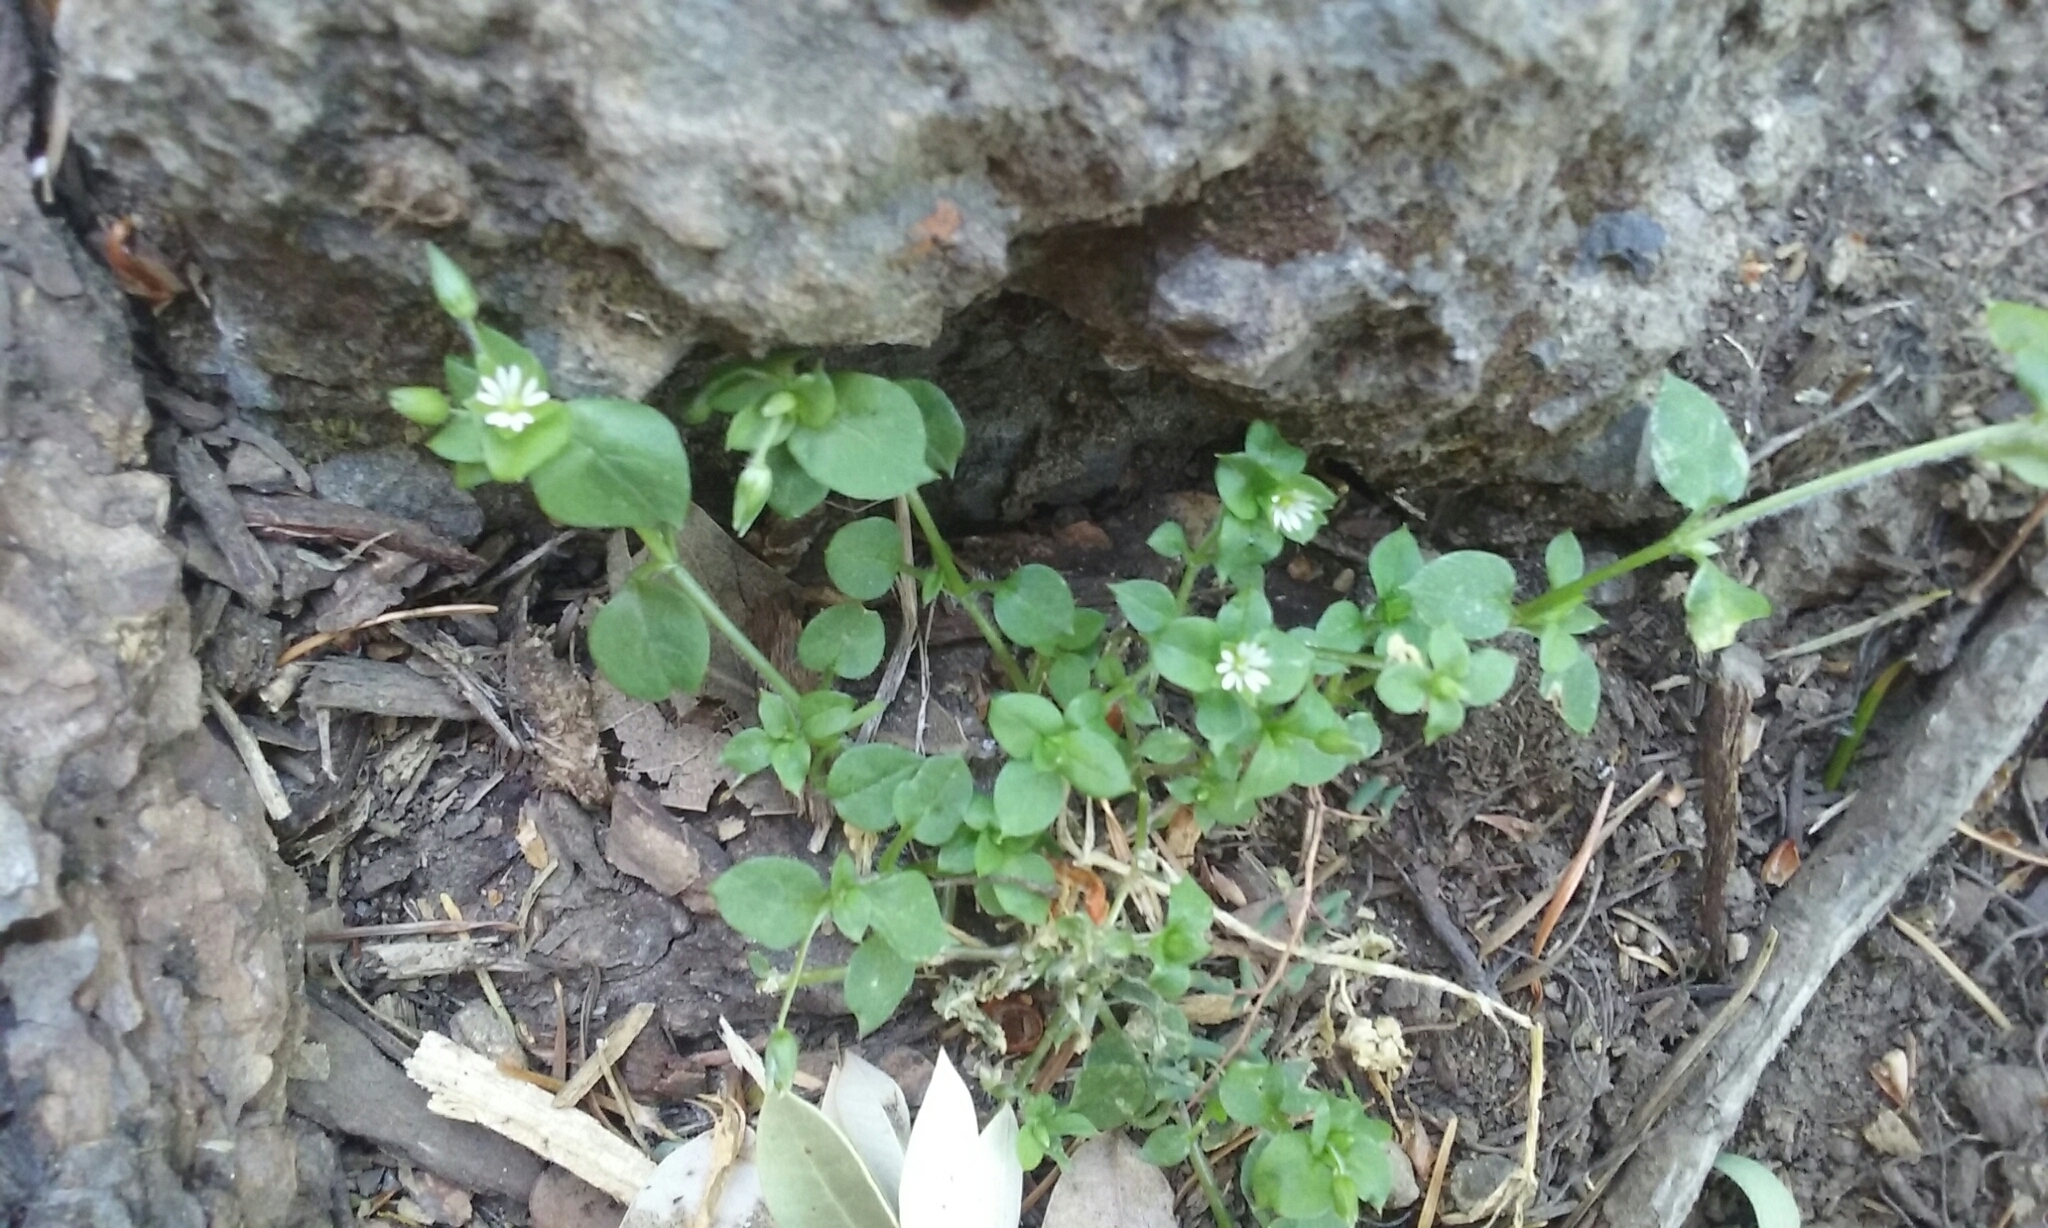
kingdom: Plantae
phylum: Tracheophyta
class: Magnoliopsida
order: Caryophyllales
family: Caryophyllaceae
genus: Stellaria
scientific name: Stellaria media
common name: Common chickweed
